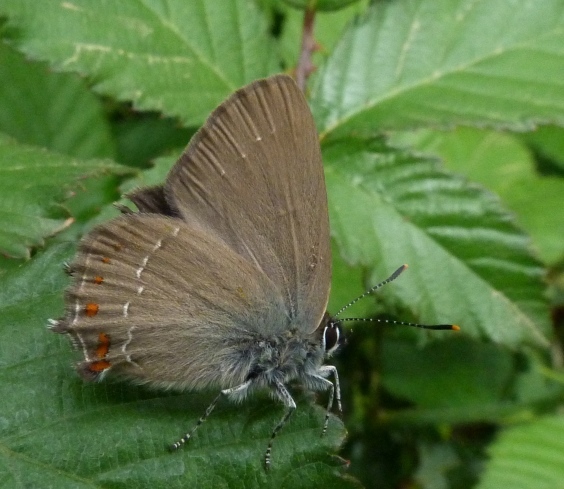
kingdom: Animalia
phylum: Arthropoda
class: Insecta
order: Lepidoptera
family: Lycaenidae
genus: Fixsenia
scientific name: Fixsenia esculi
